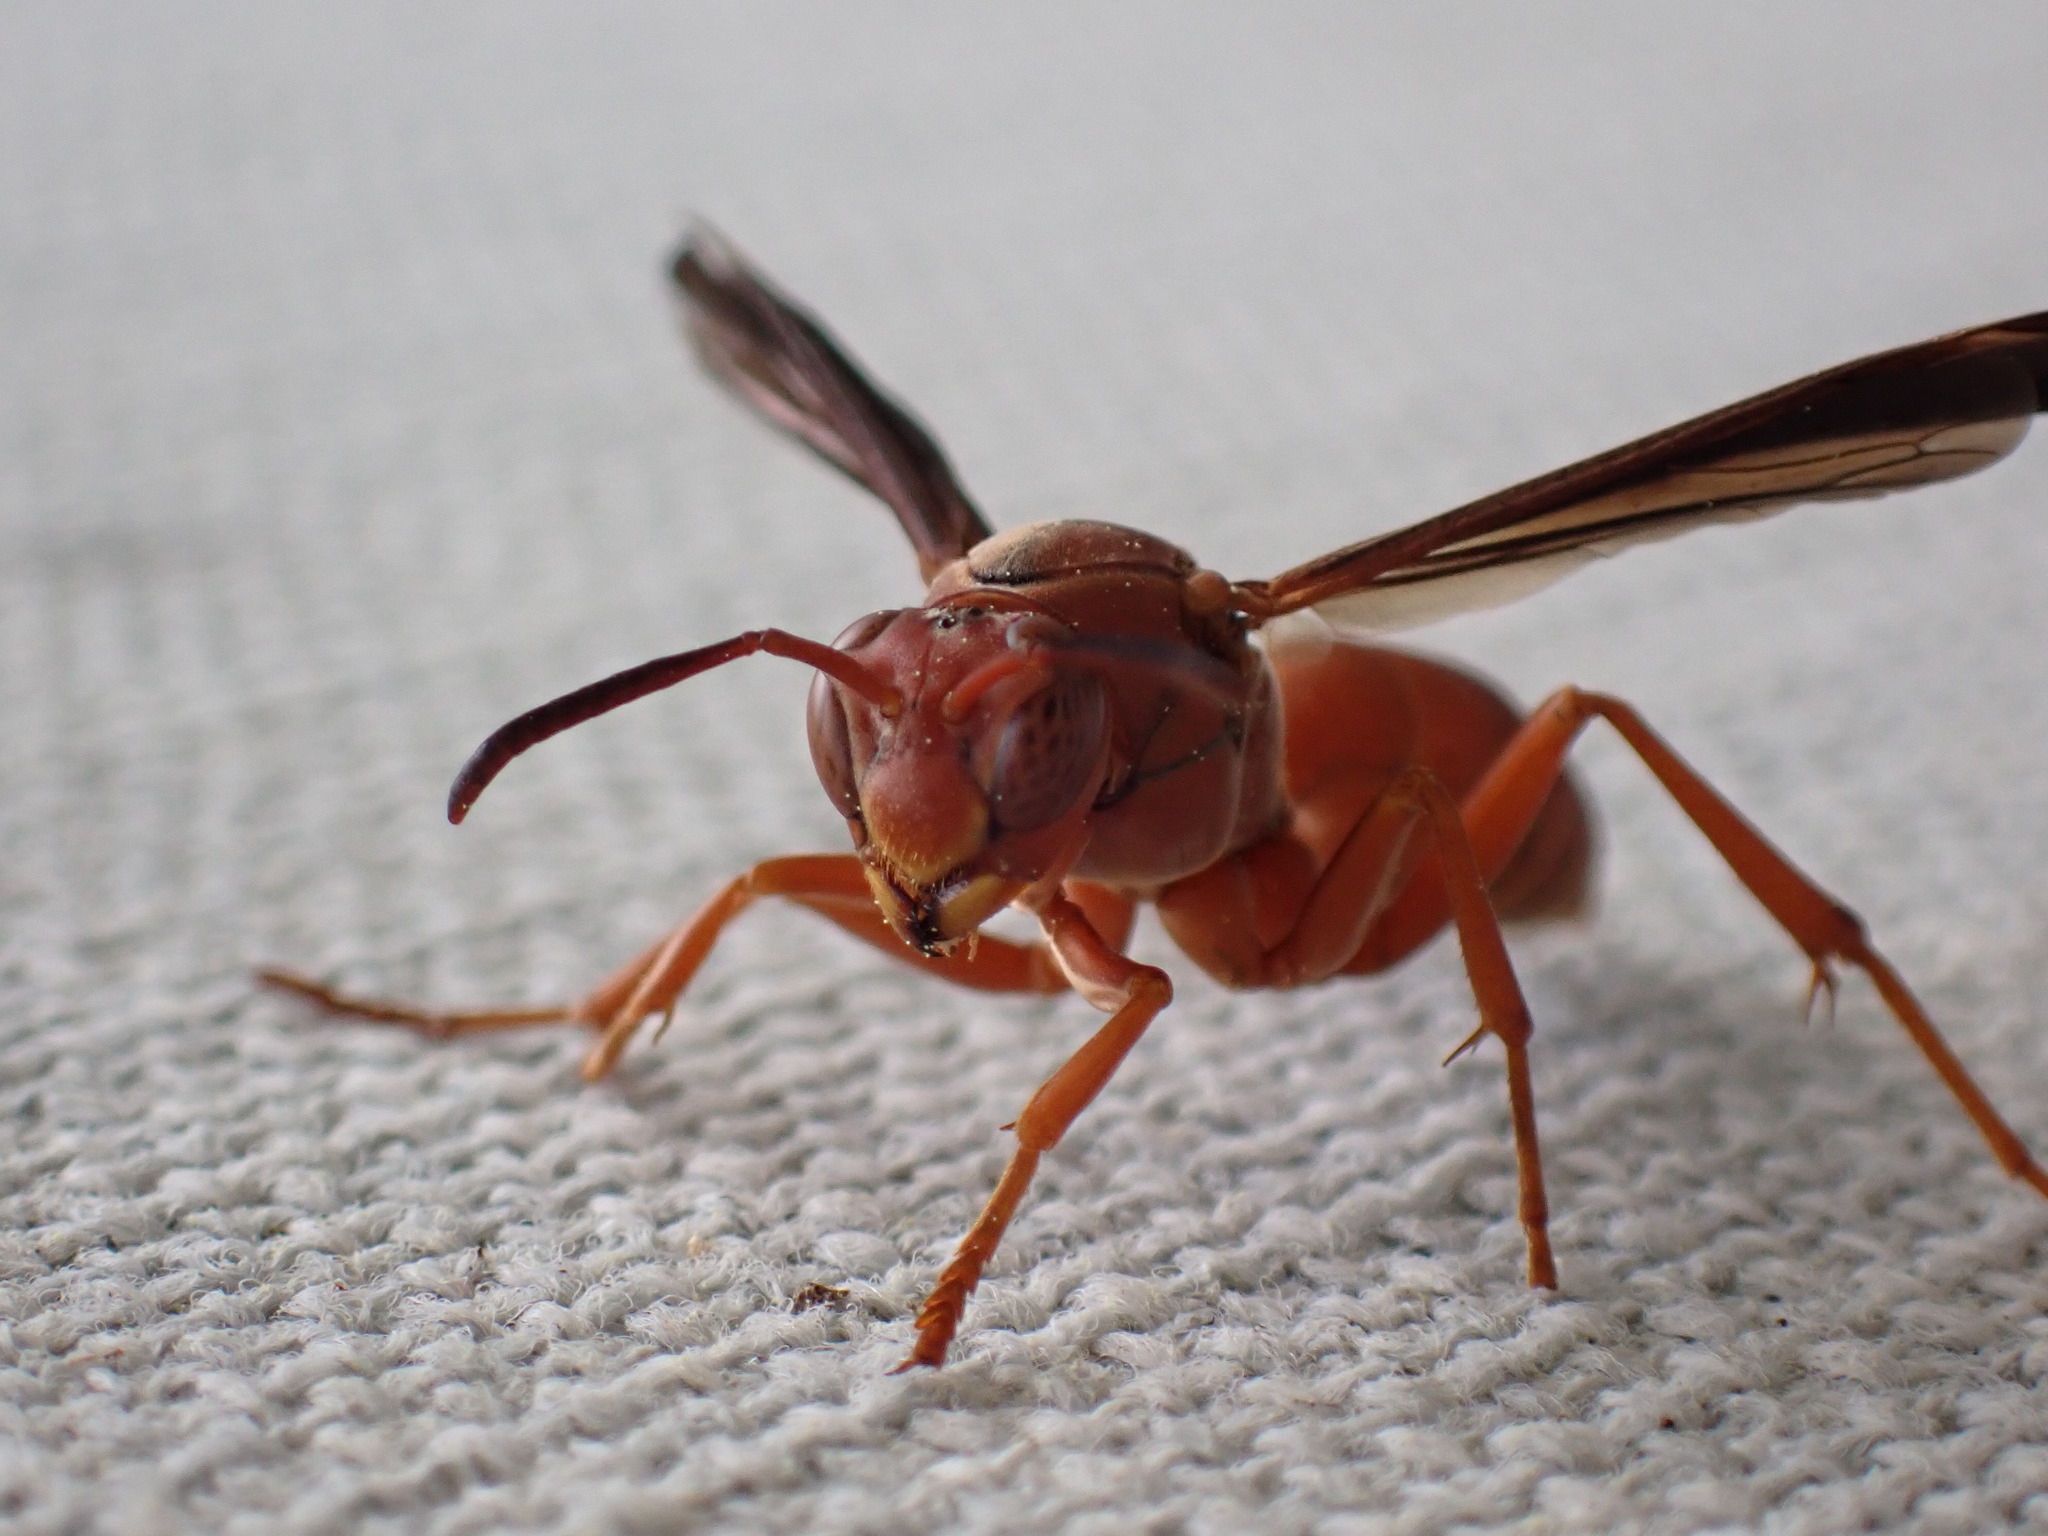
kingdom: Animalia
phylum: Arthropoda
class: Insecta
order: Hymenoptera
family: Eumenidae
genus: Polistes
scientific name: Polistes carolina
